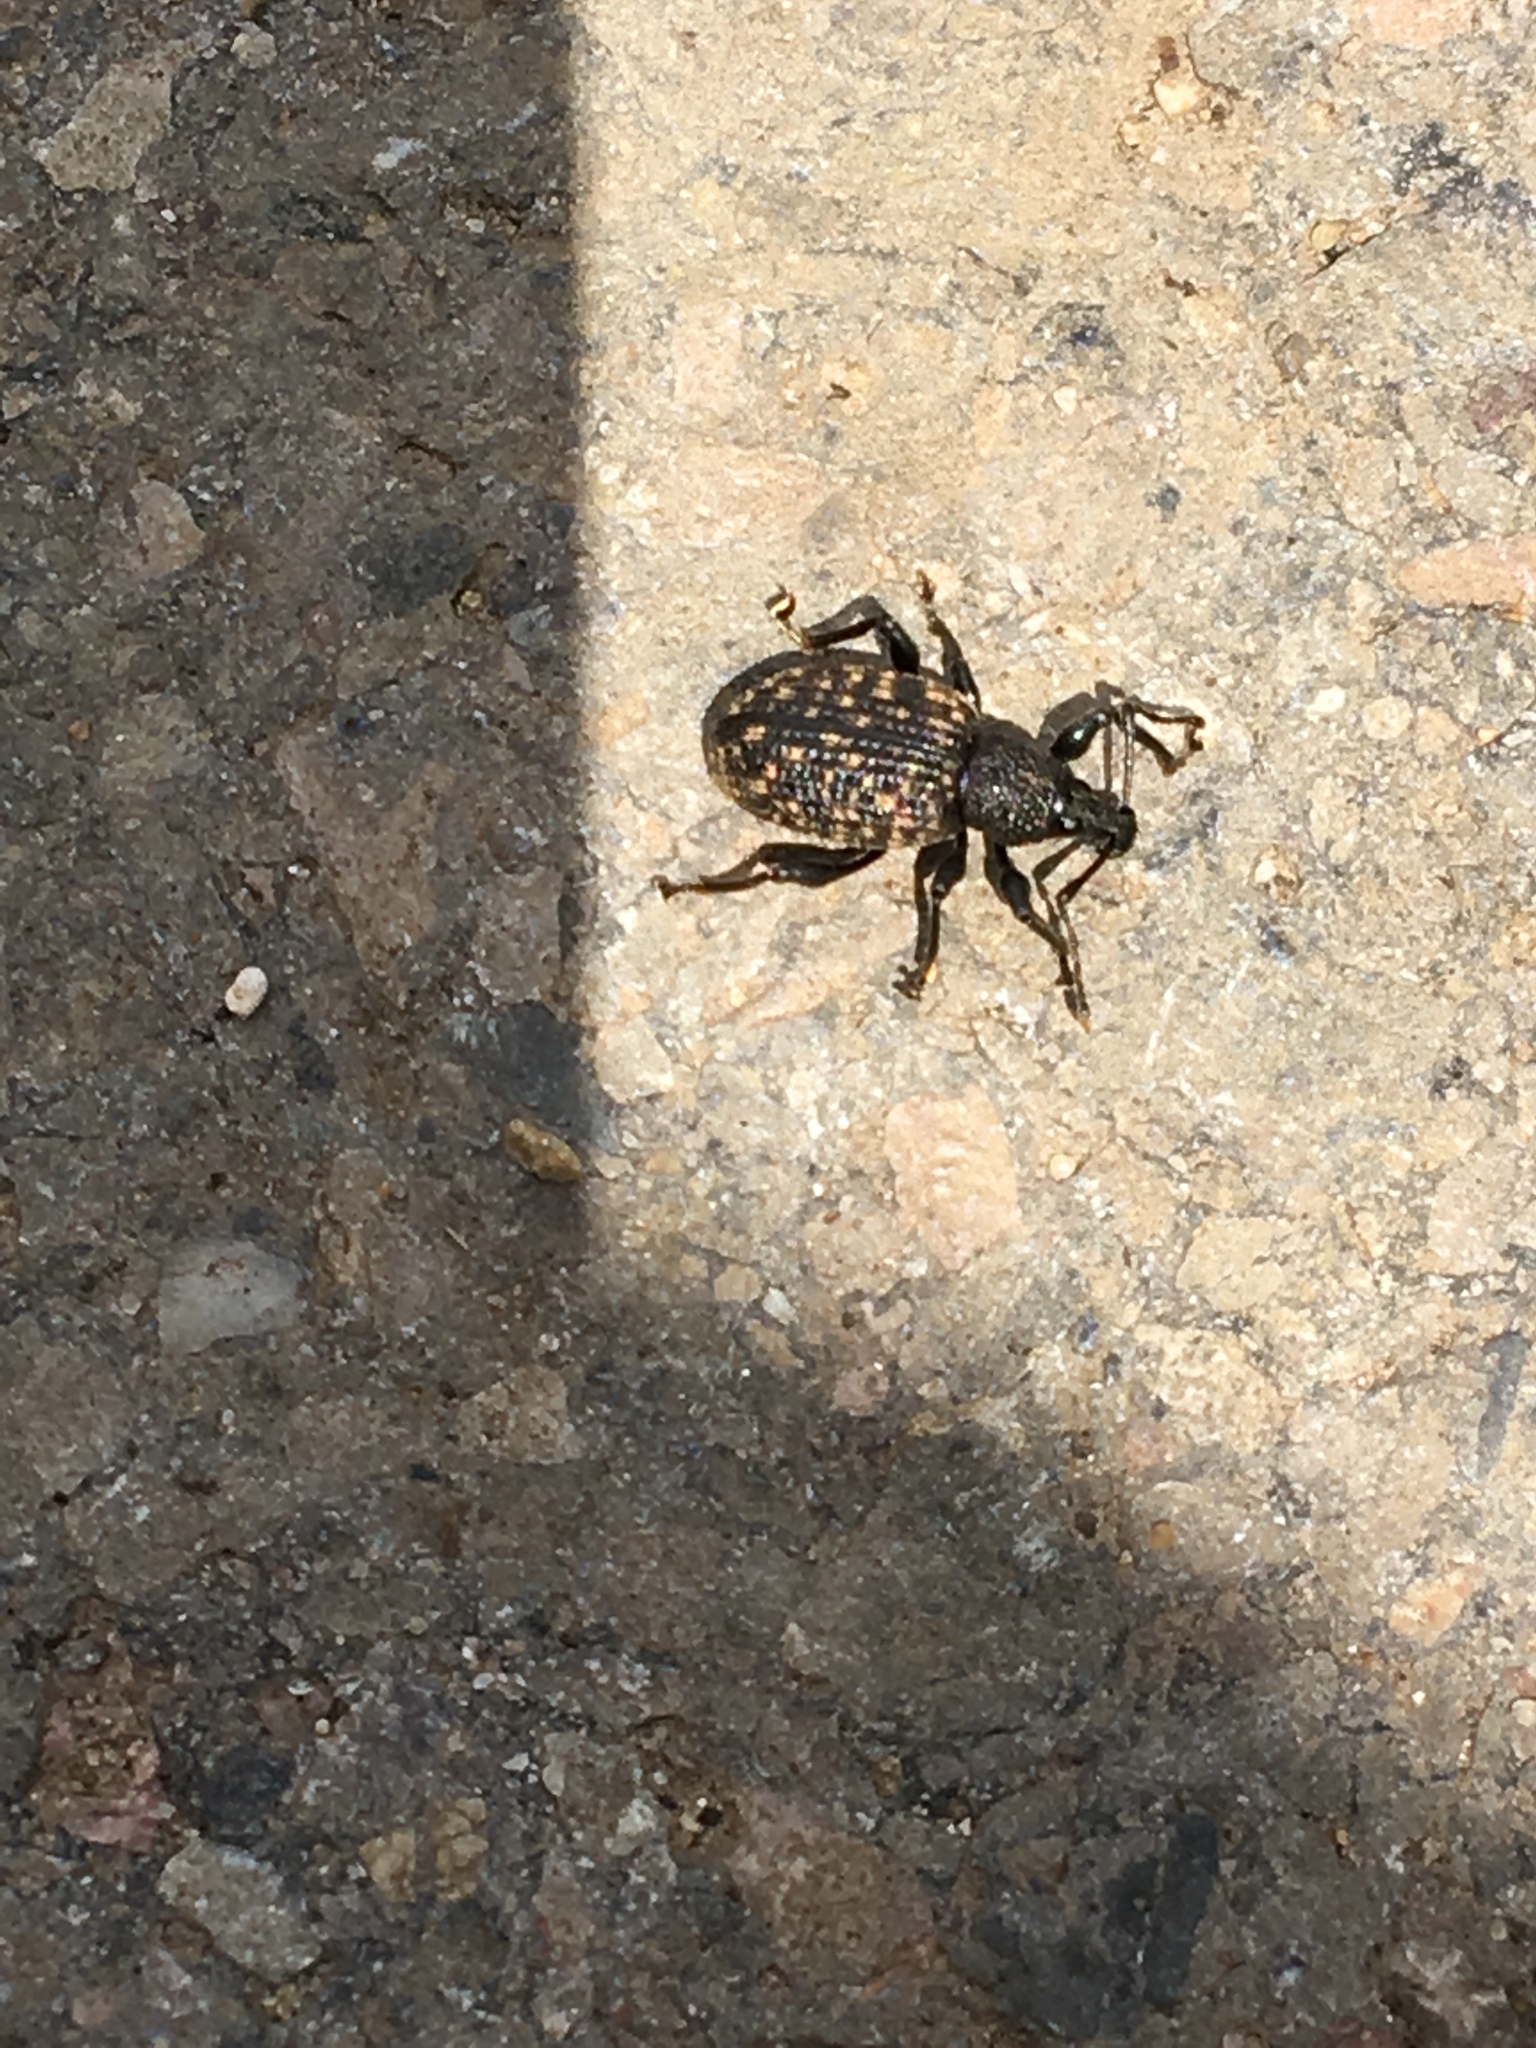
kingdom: Animalia
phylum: Arthropoda
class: Insecta
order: Coleoptera
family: Curculionidae
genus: Otiorhynchus
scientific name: Otiorhynchus sulcatus
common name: Black vine weevil
